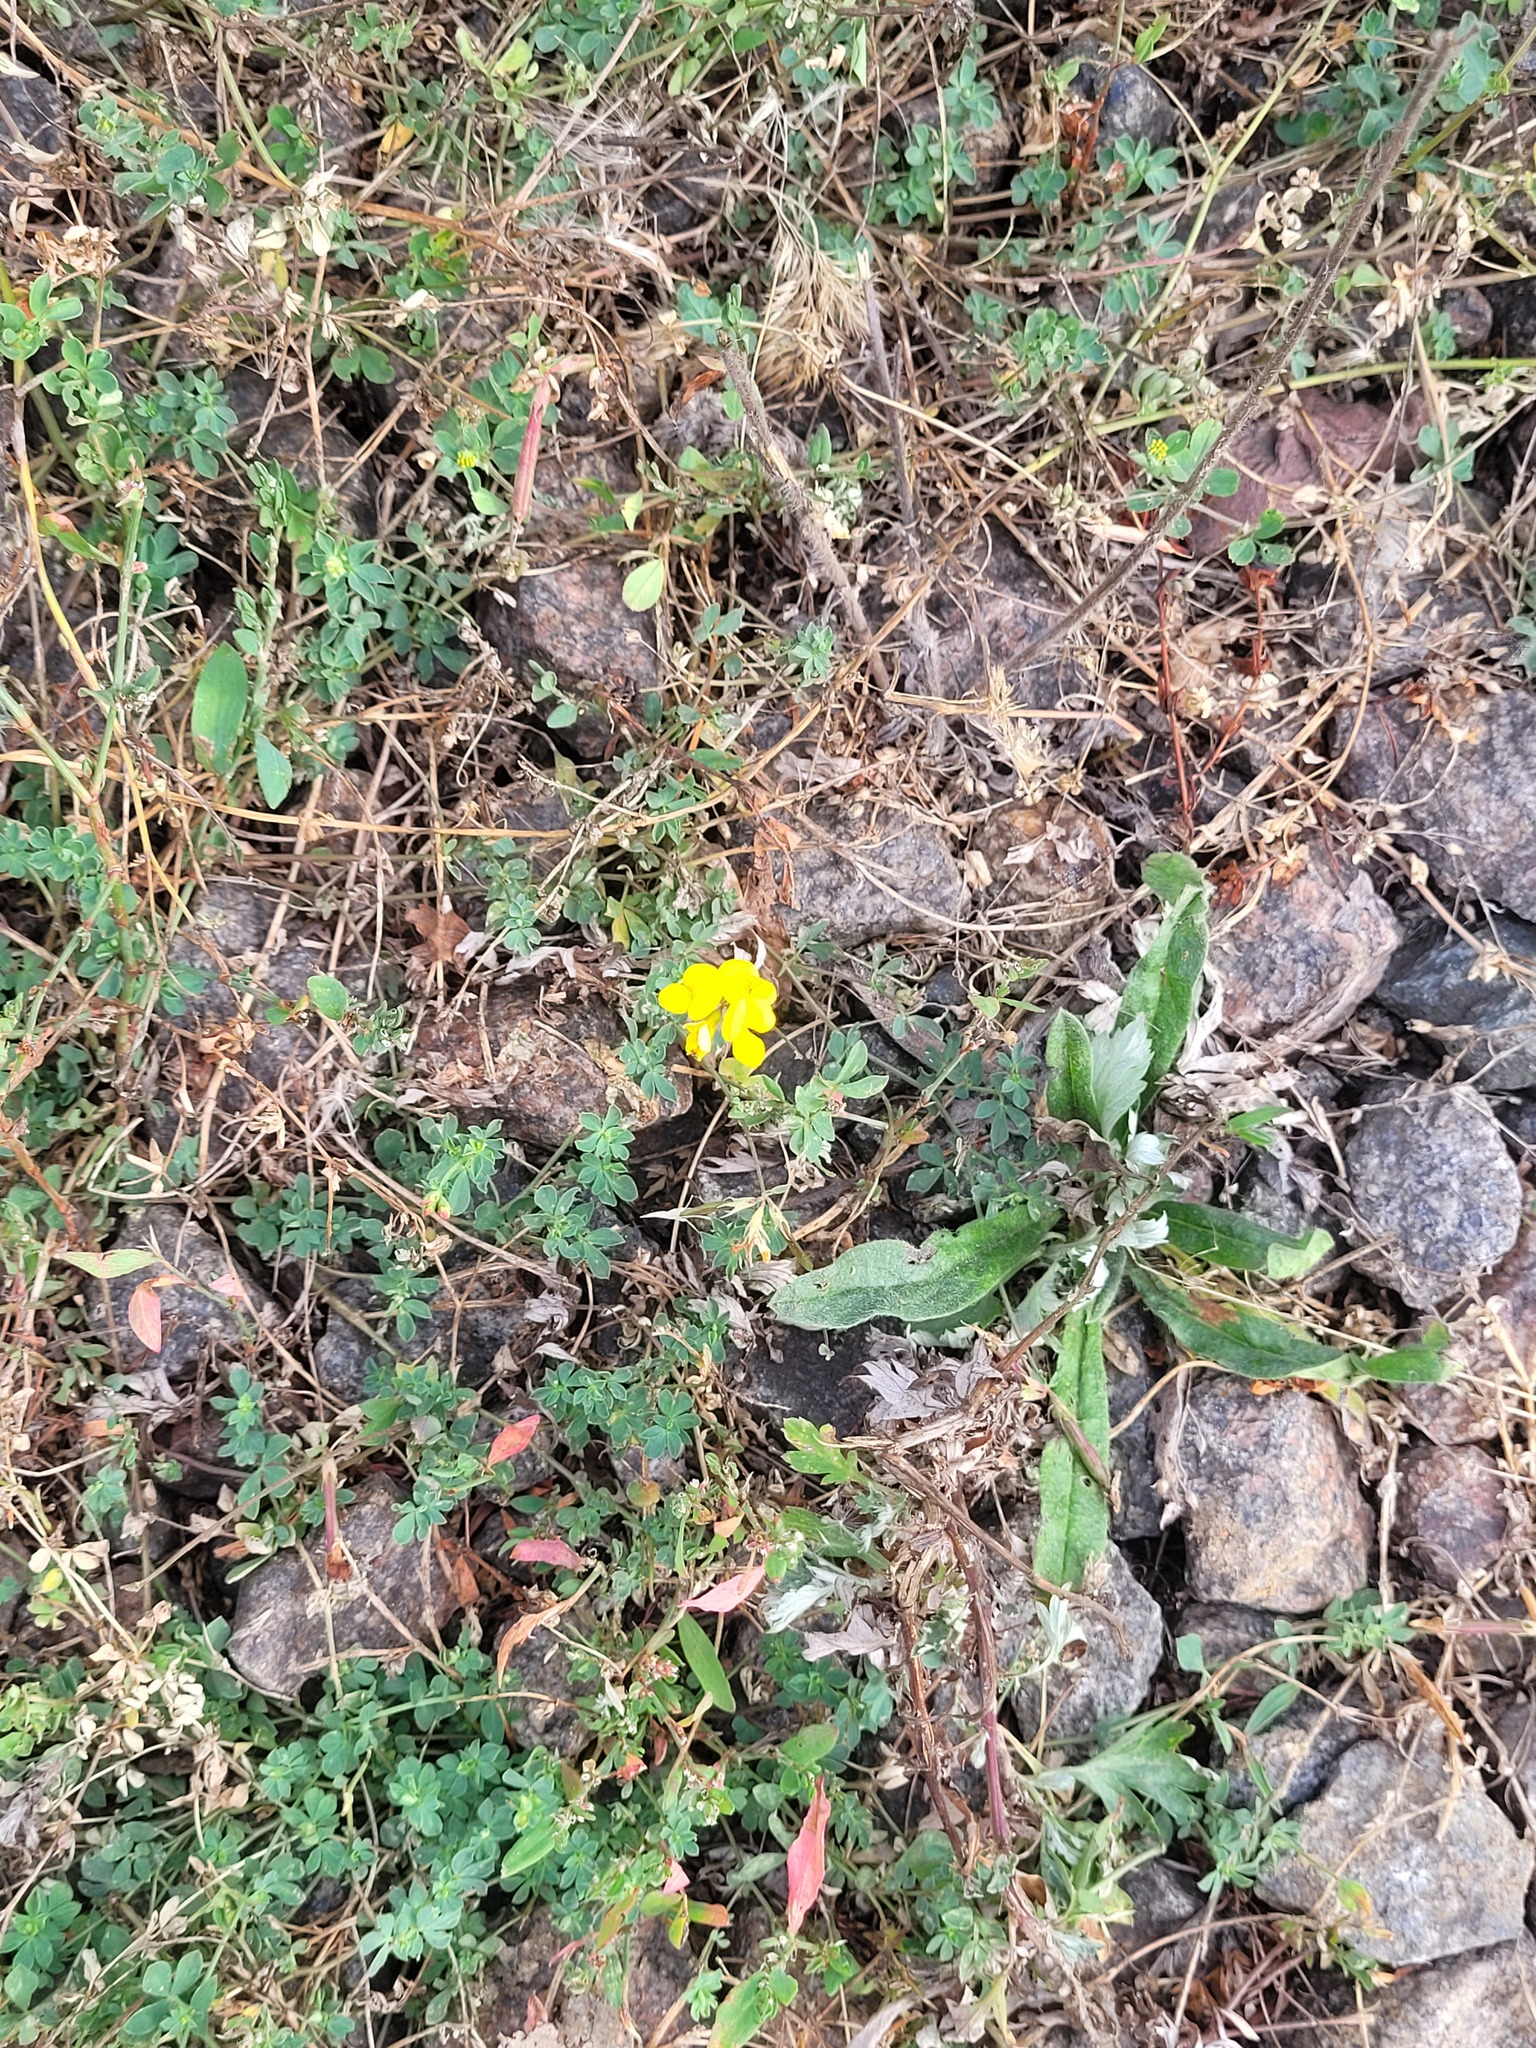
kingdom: Plantae
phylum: Tracheophyta
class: Magnoliopsida
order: Fabales
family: Fabaceae
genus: Lotus
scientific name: Lotus corniculatus
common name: Common bird's-foot-trefoil
